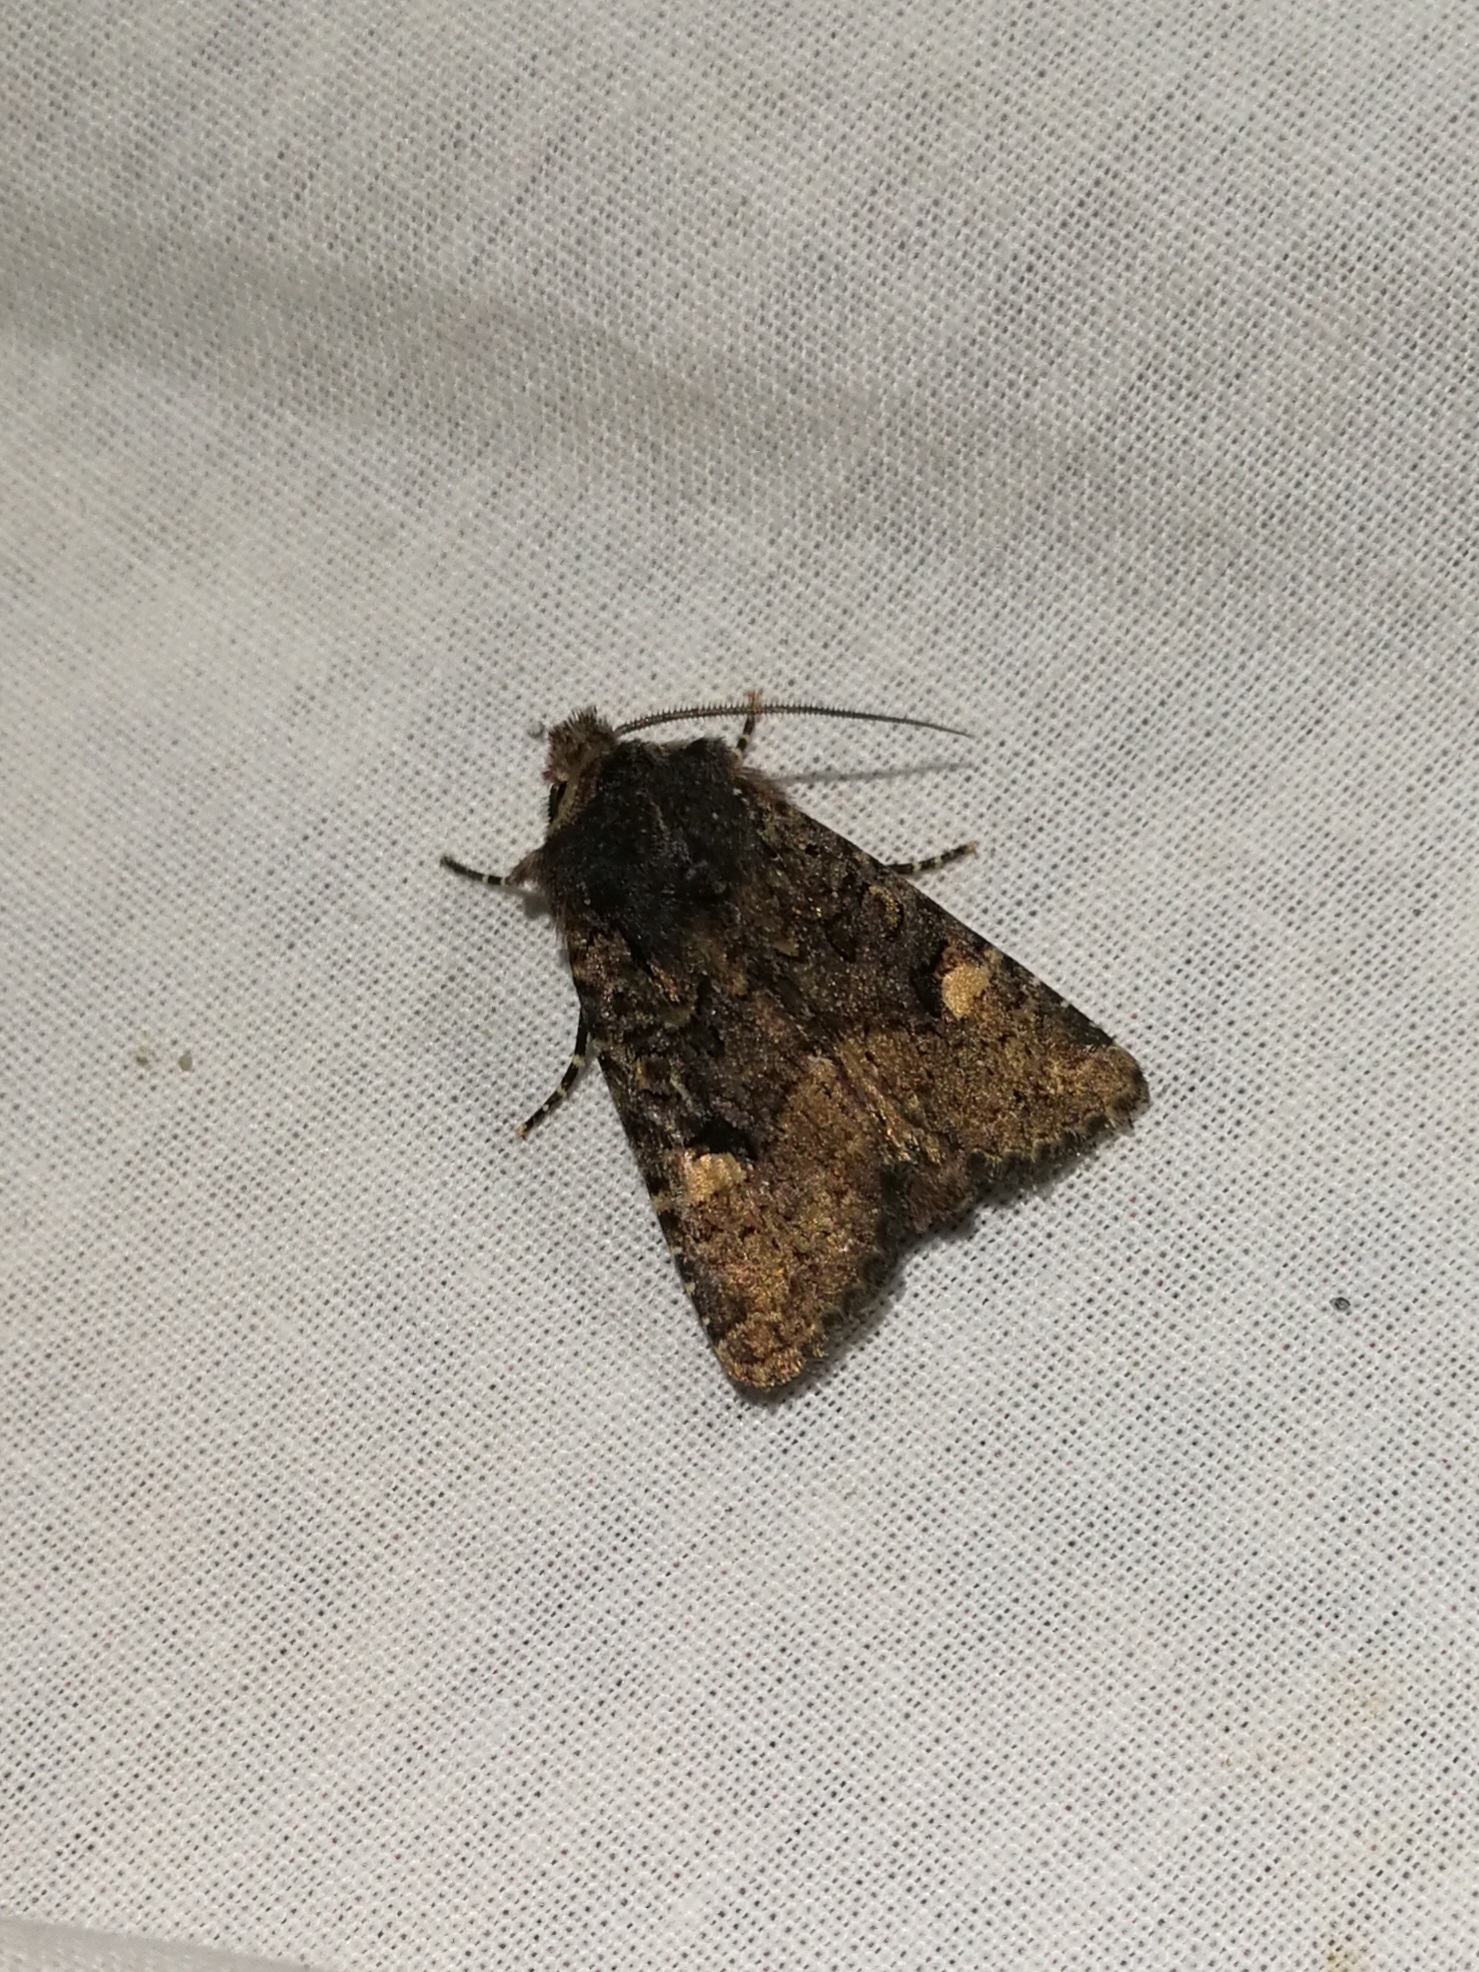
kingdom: Animalia
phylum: Arthropoda
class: Insecta
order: Lepidoptera
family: Noctuidae
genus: Dryobota
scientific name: Dryobota labecula
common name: Oak rustic
